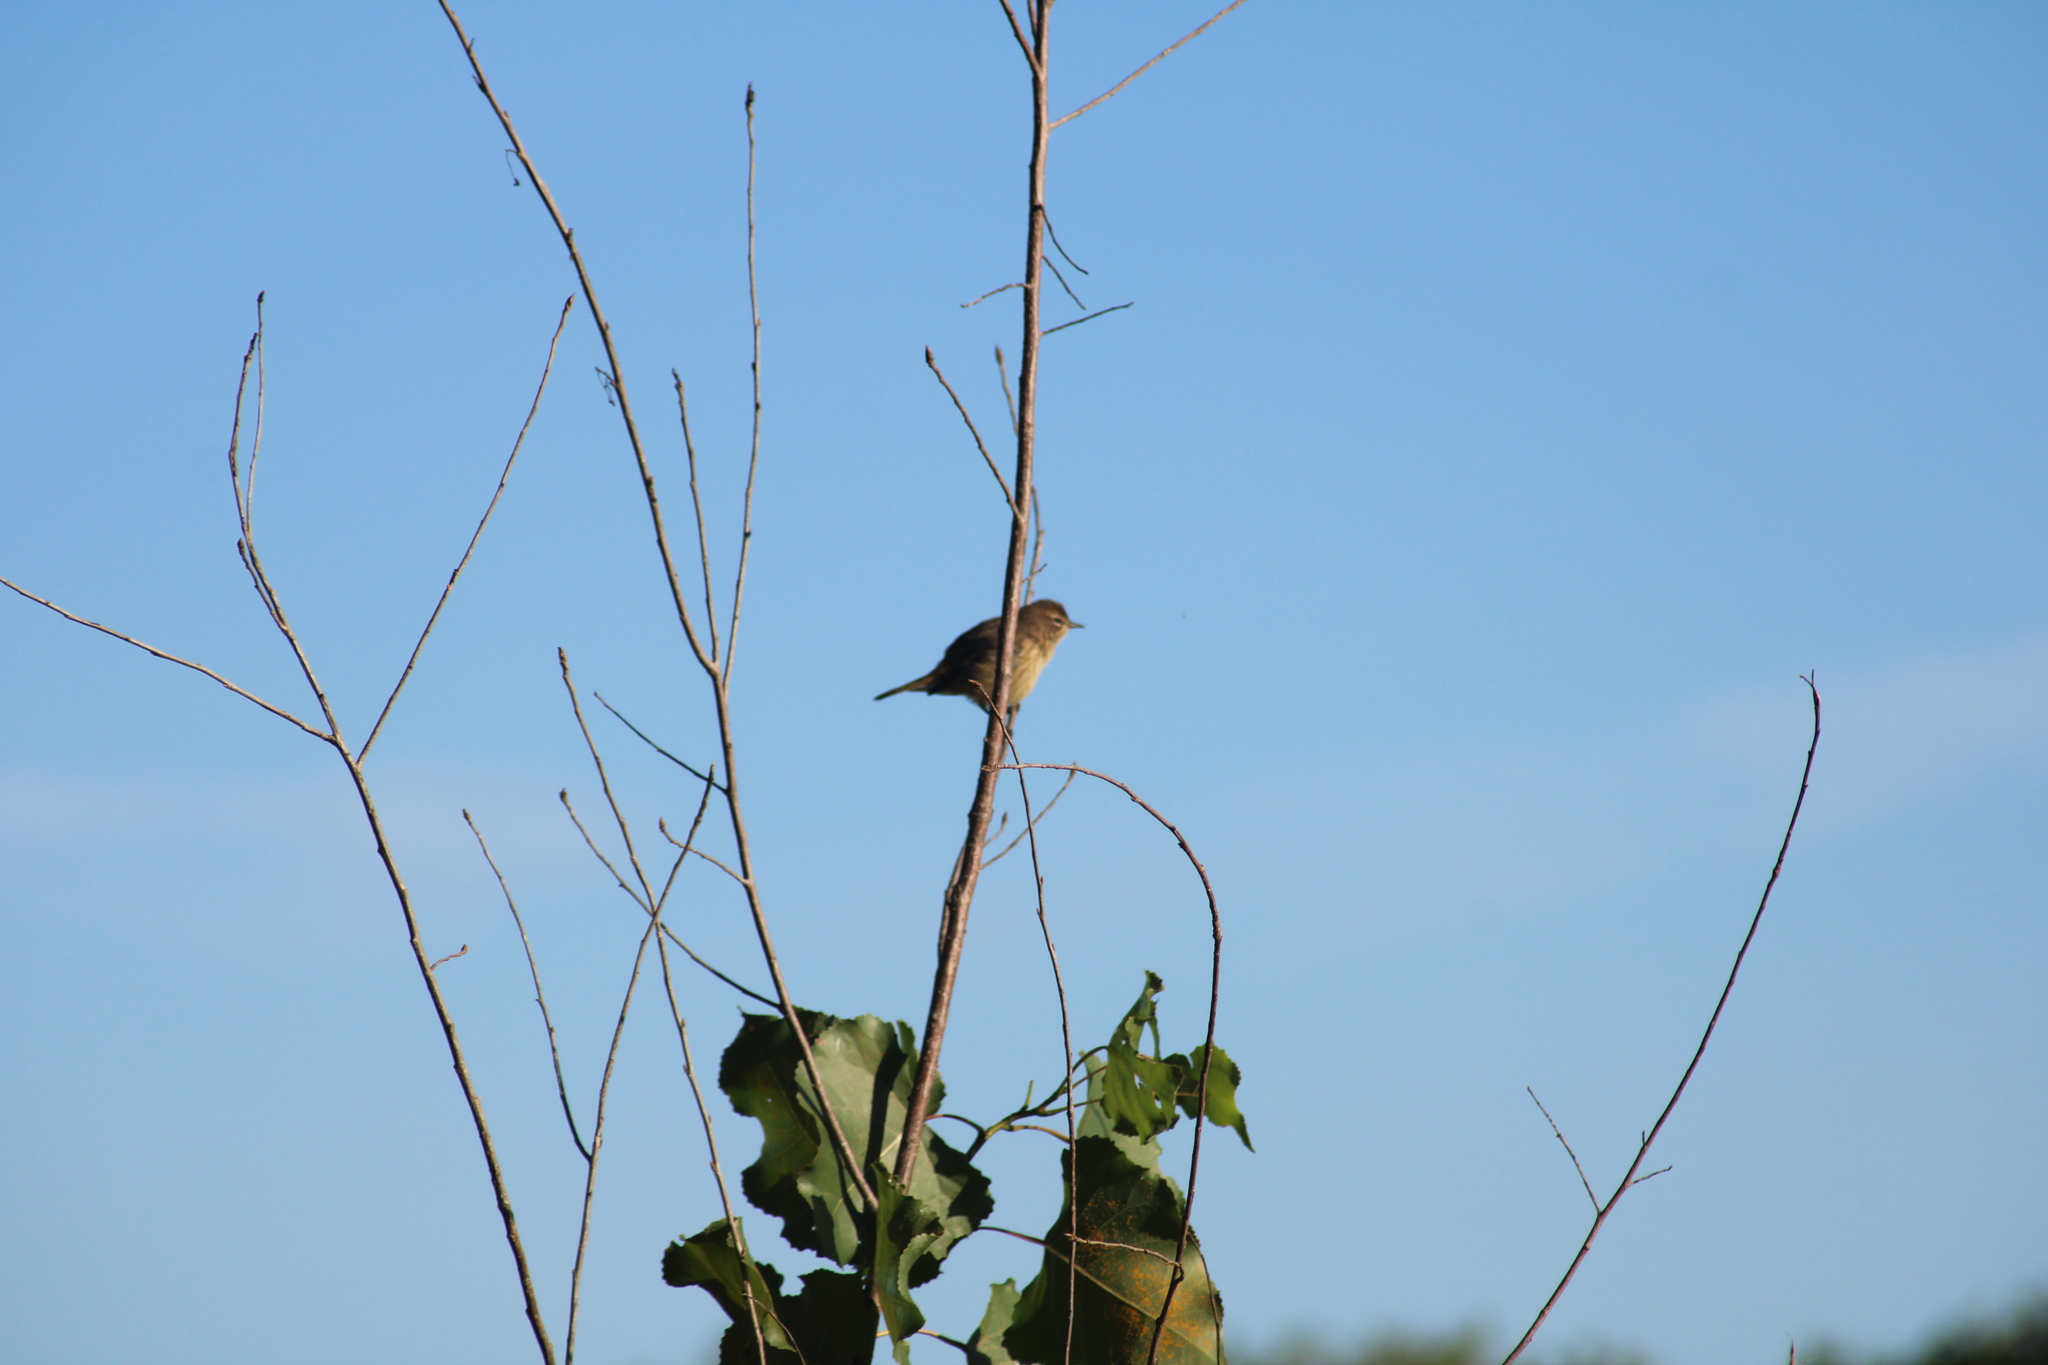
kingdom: Animalia
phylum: Chordata
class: Aves
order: Passeriformes
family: Parulidae
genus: Setophaga
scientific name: Setophaga palmarum
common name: Palm warbler
